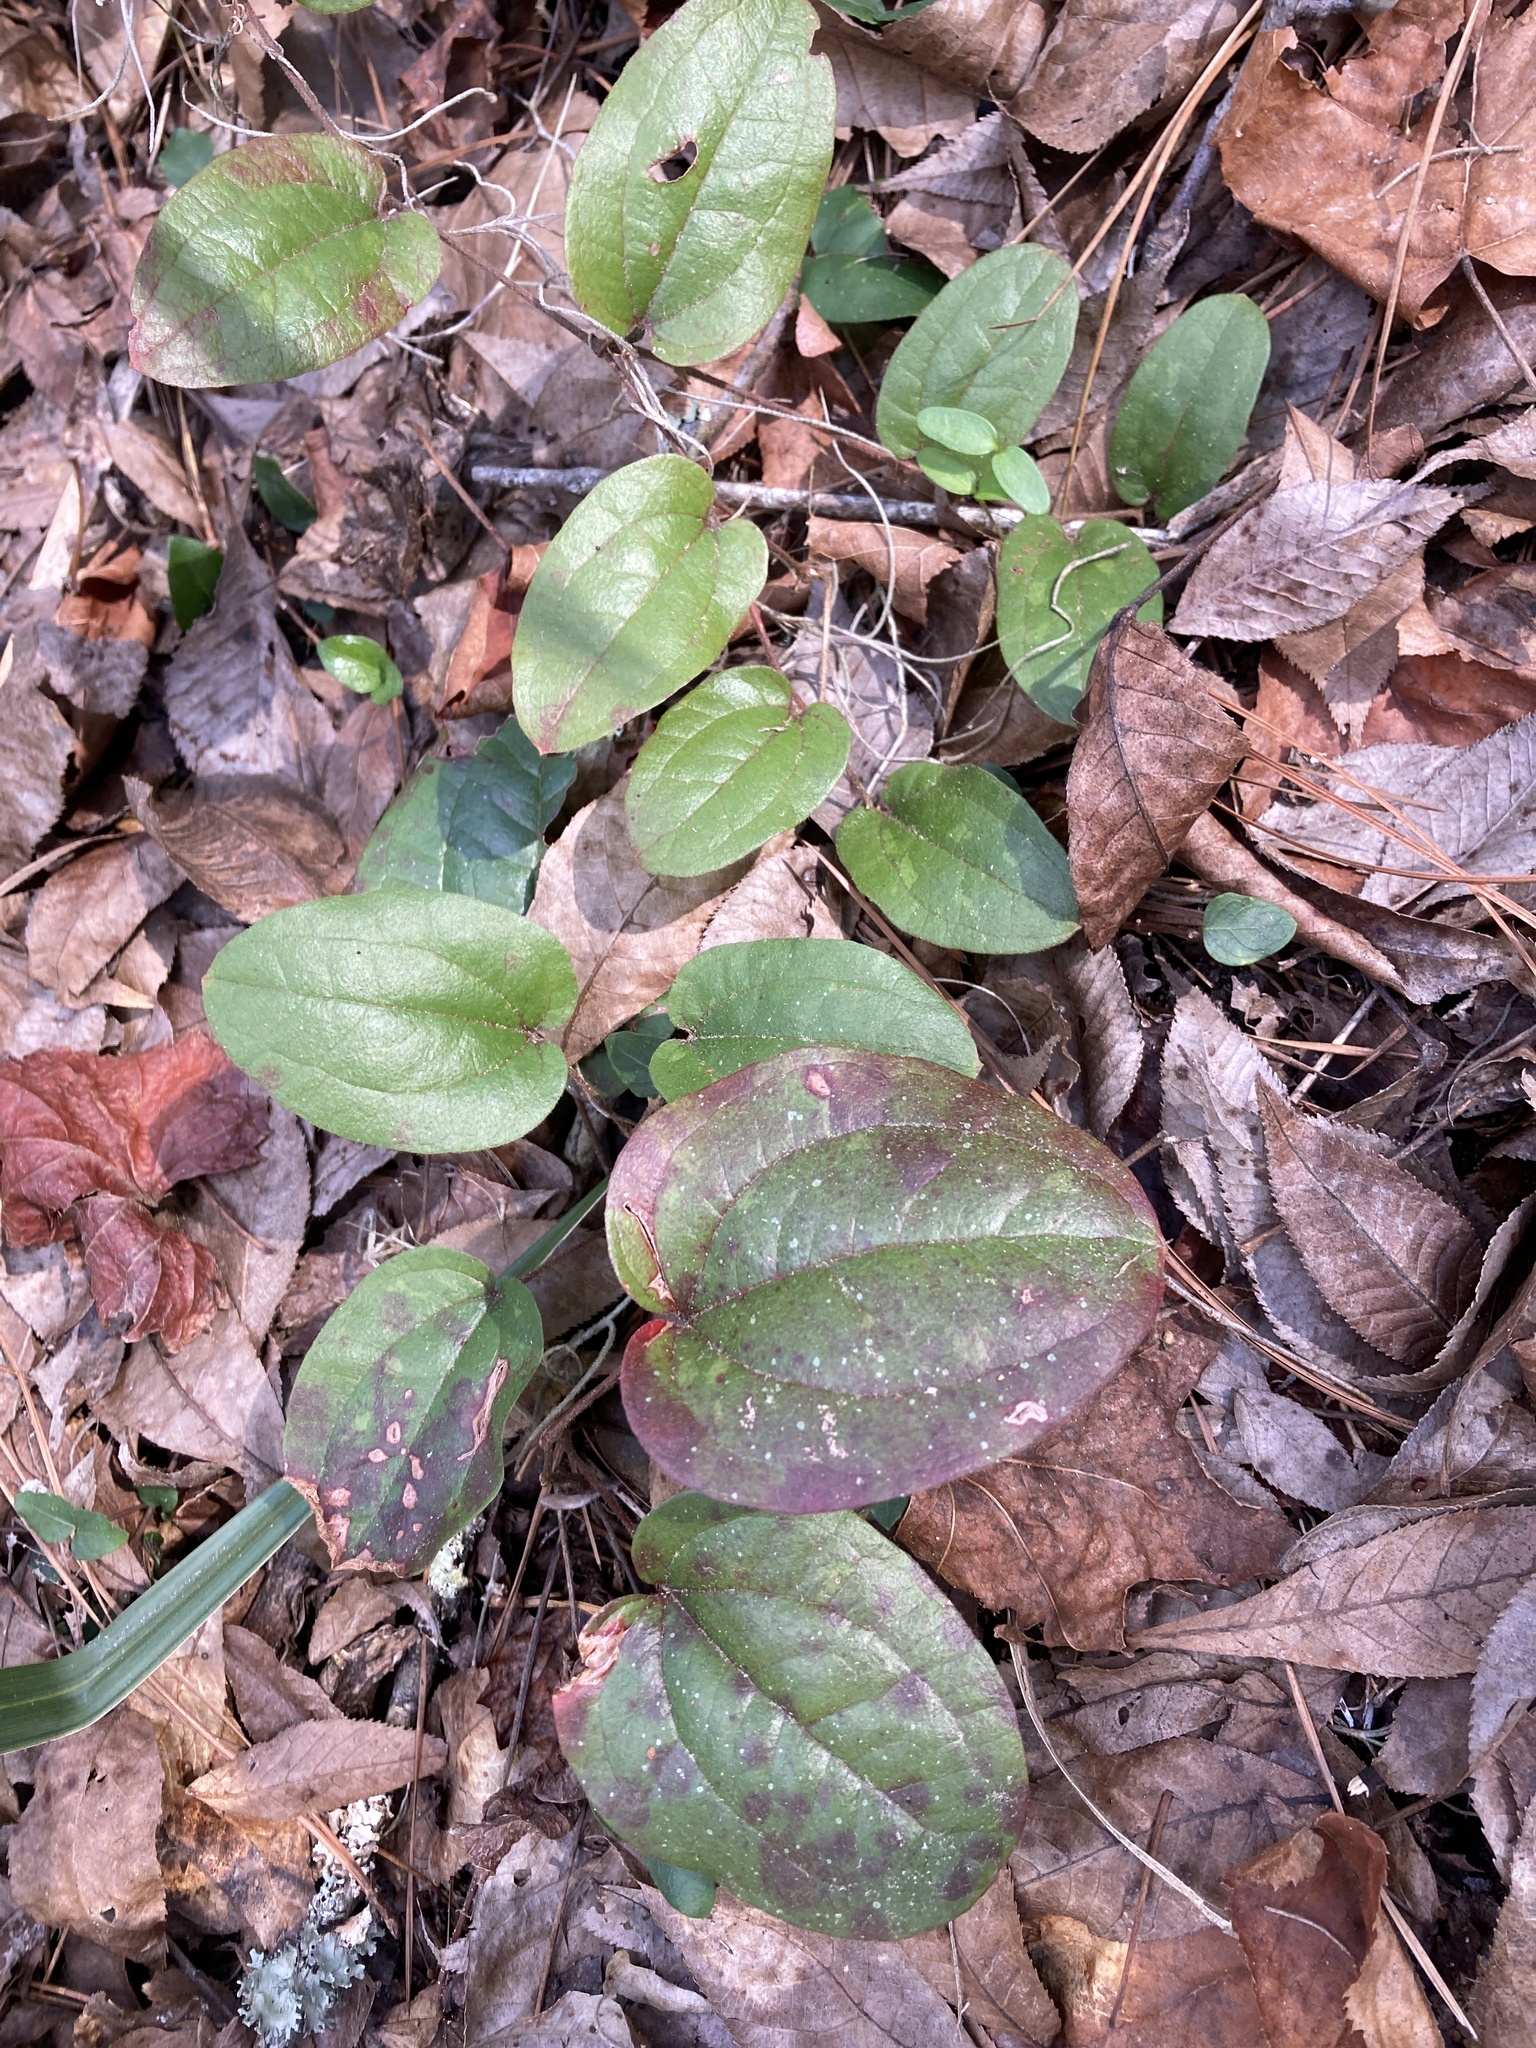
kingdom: Plantae
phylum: Tracheophyta
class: Liliopsida
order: Liliales
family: Smilacaceae
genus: Smilax
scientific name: Smilax pumila
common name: Sarsaparilla-vine
